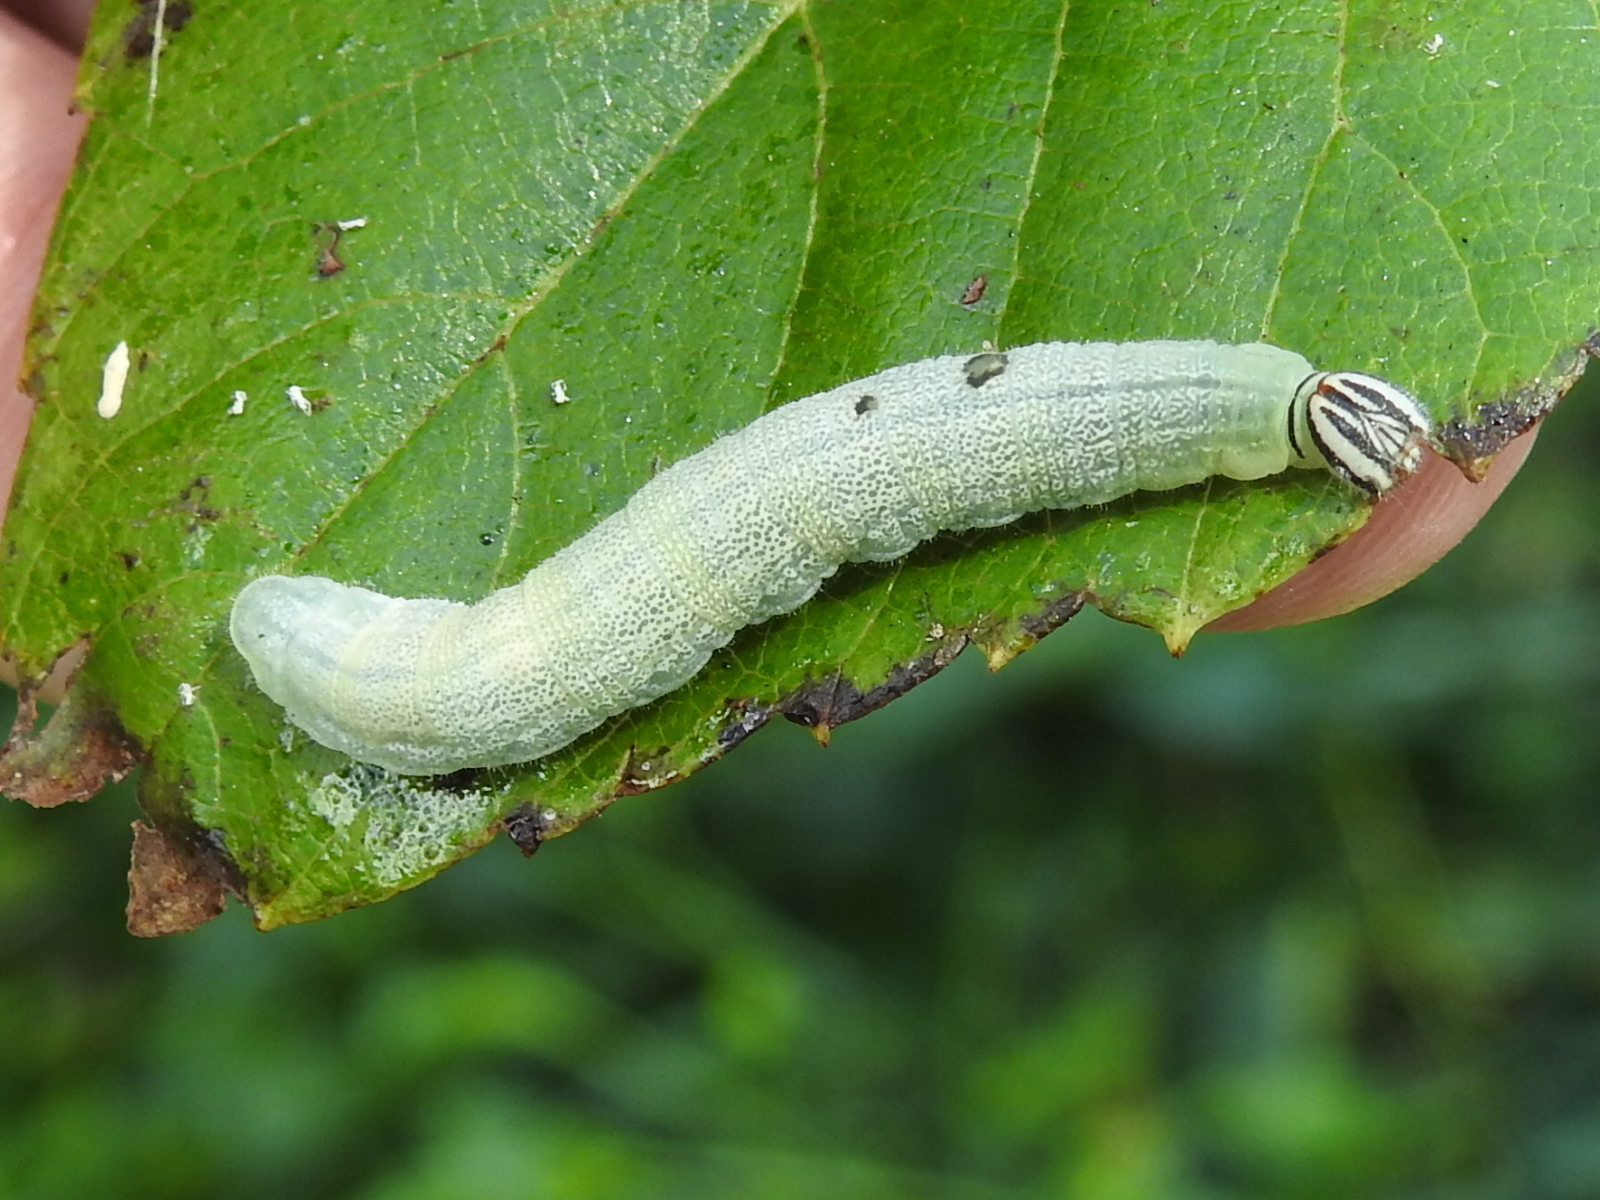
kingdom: Animalia
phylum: Arthropoda
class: Insecta
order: Lepidoptera
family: Hesperiidae
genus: Lerema
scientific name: Lerema accius
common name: Clouded skipper
